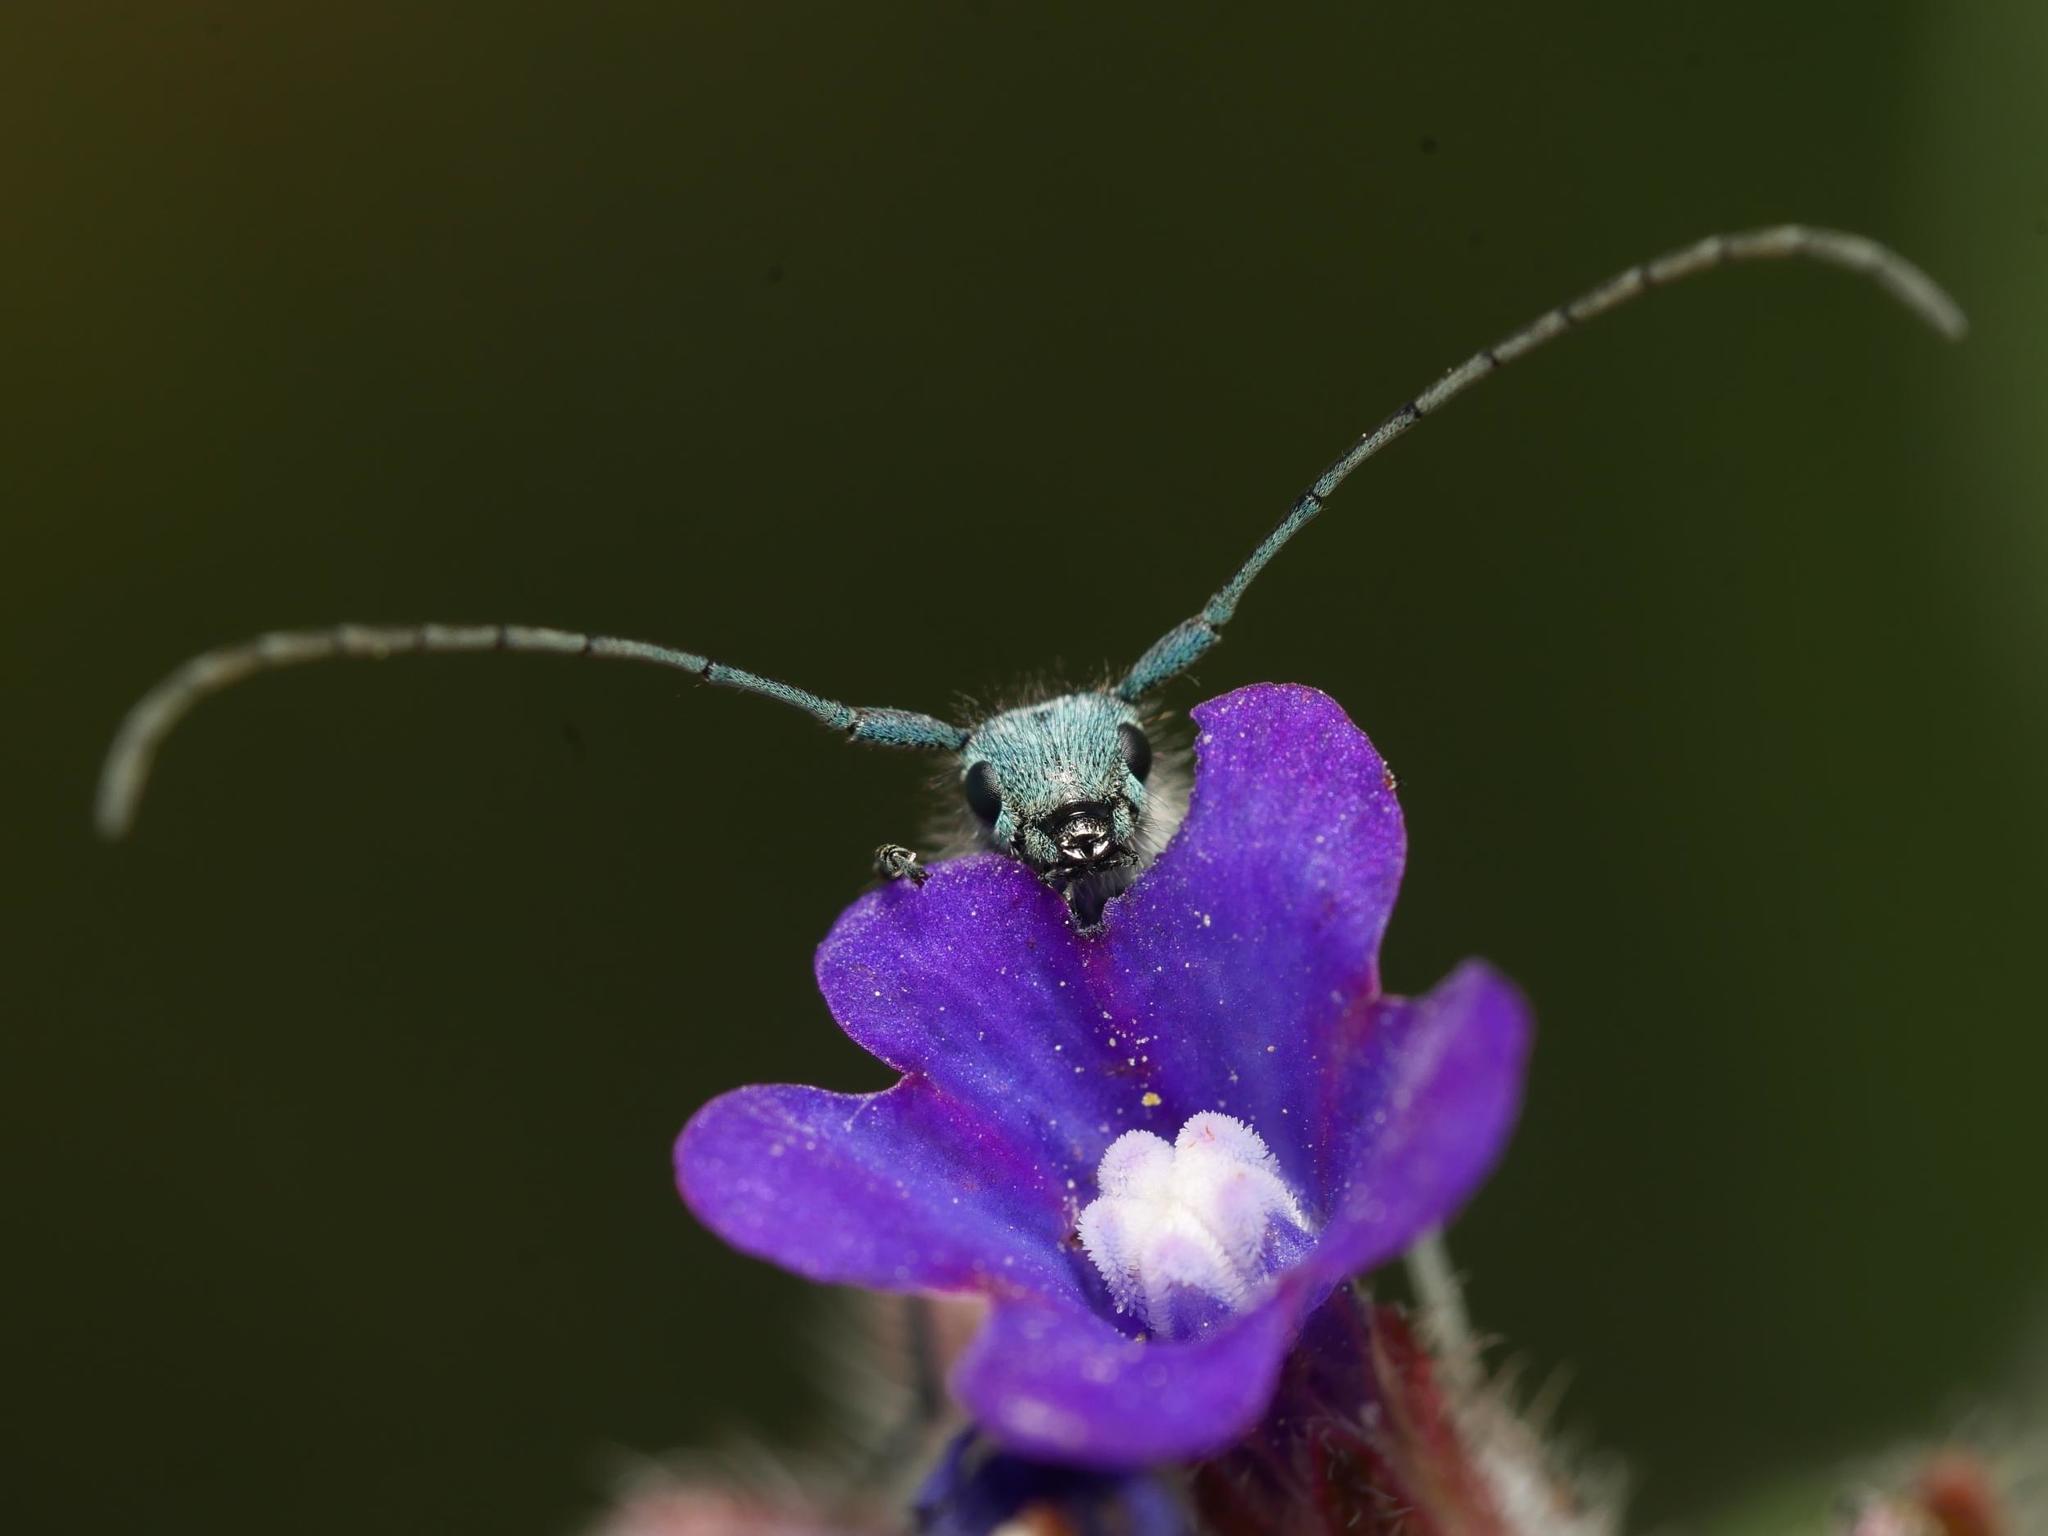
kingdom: Animalia
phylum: Arthropoda
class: Insecta
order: Coleoptera
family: Cerambycidae
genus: Phytoecia
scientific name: Phytoecia coerulescens
